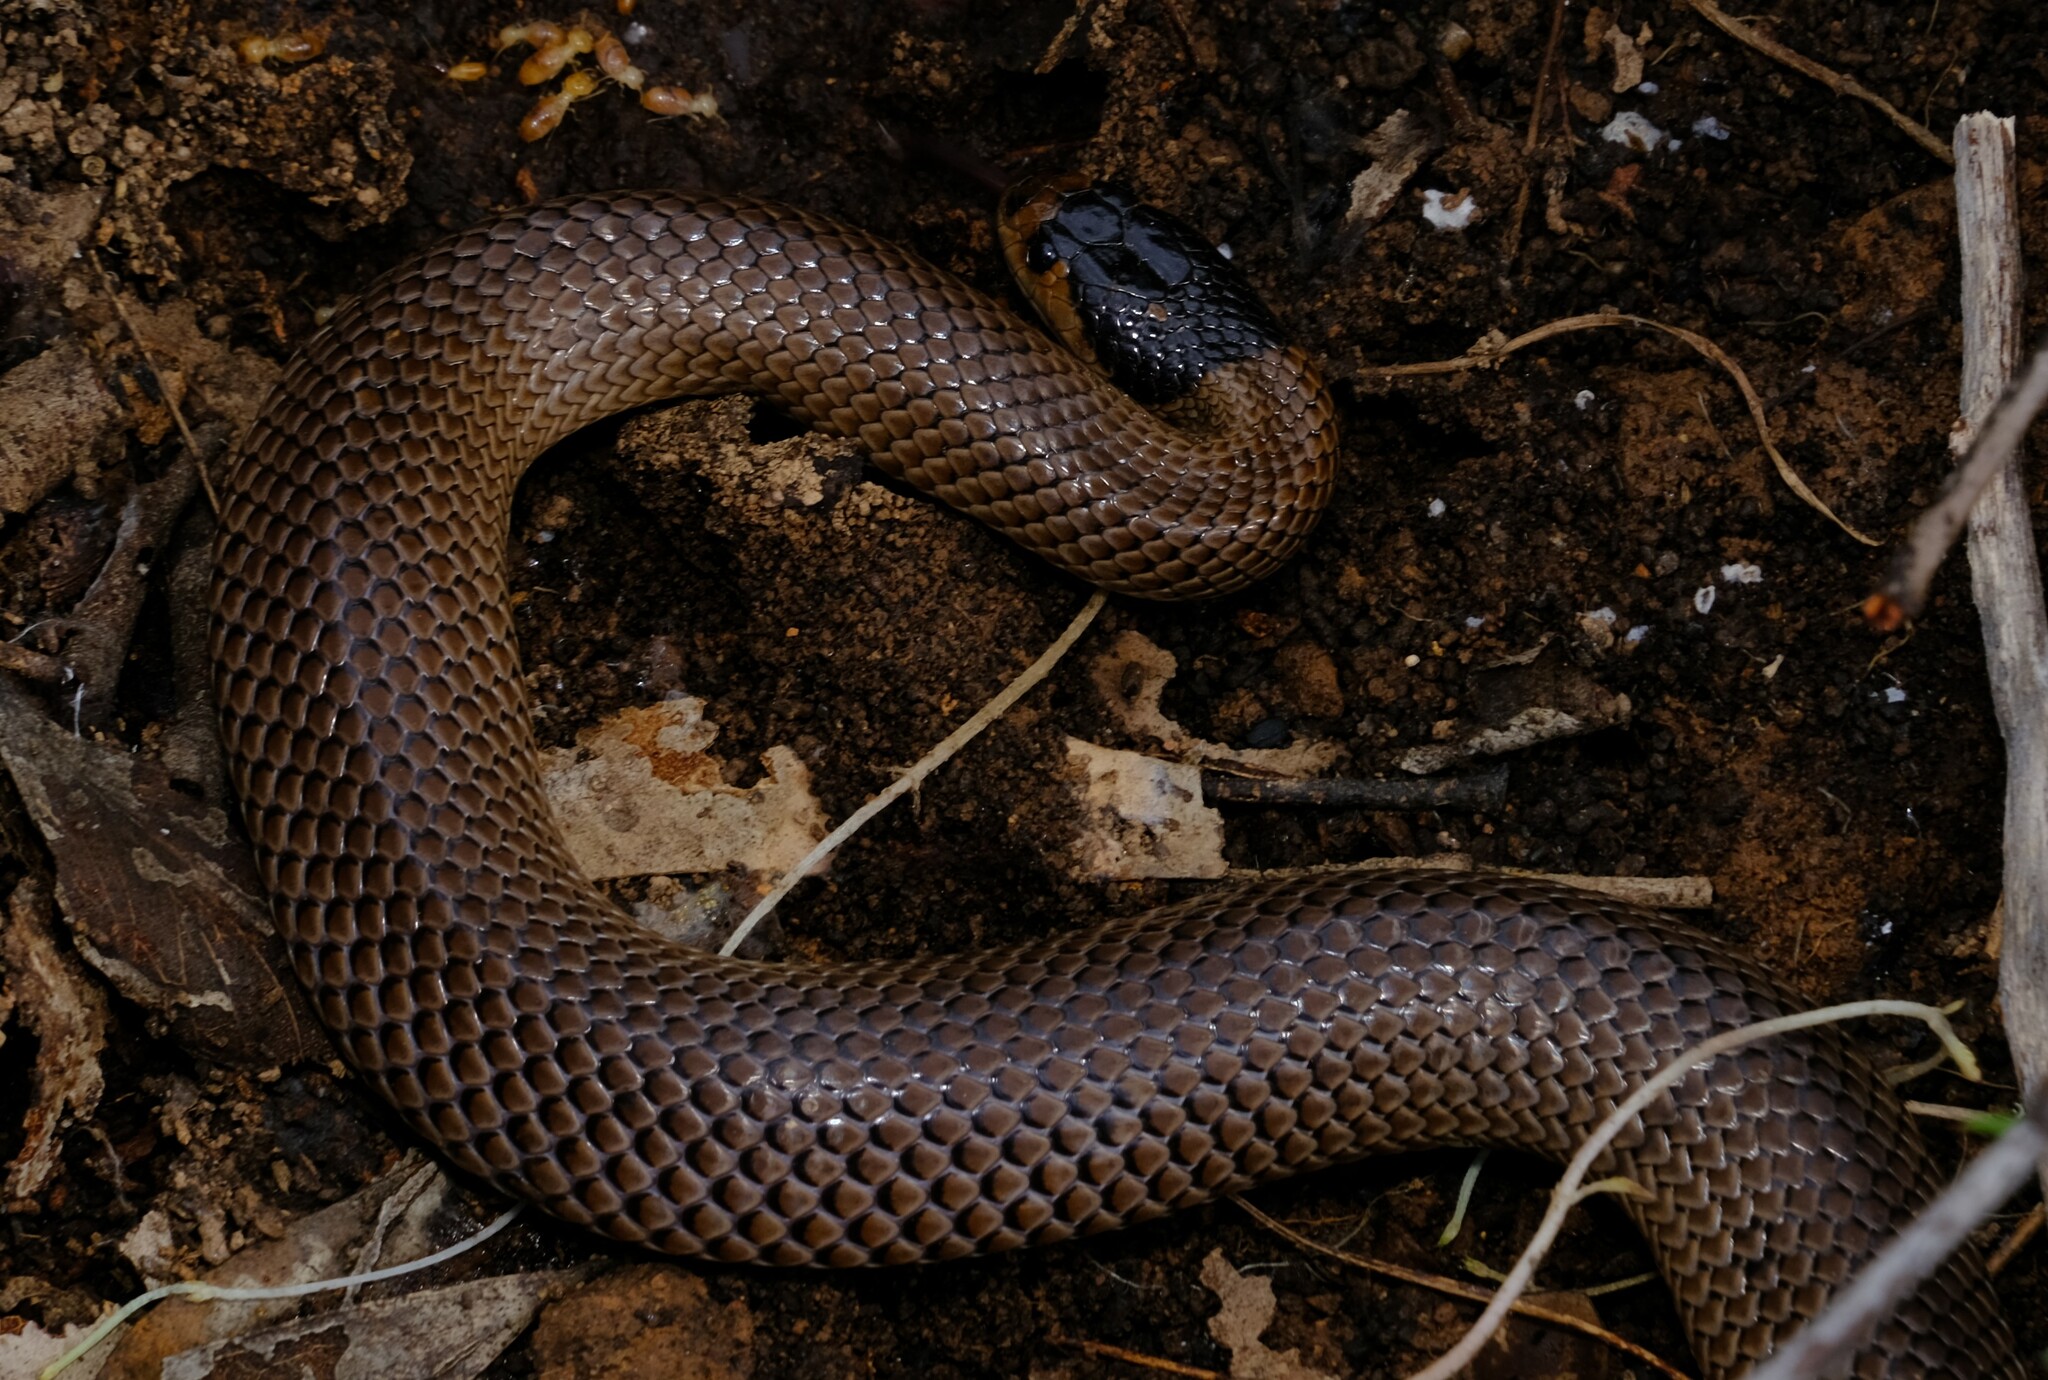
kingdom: Animalia
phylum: Chordata
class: Squamata
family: Elapidae
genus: Suta
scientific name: Suta flagellum
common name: Little whip snake
